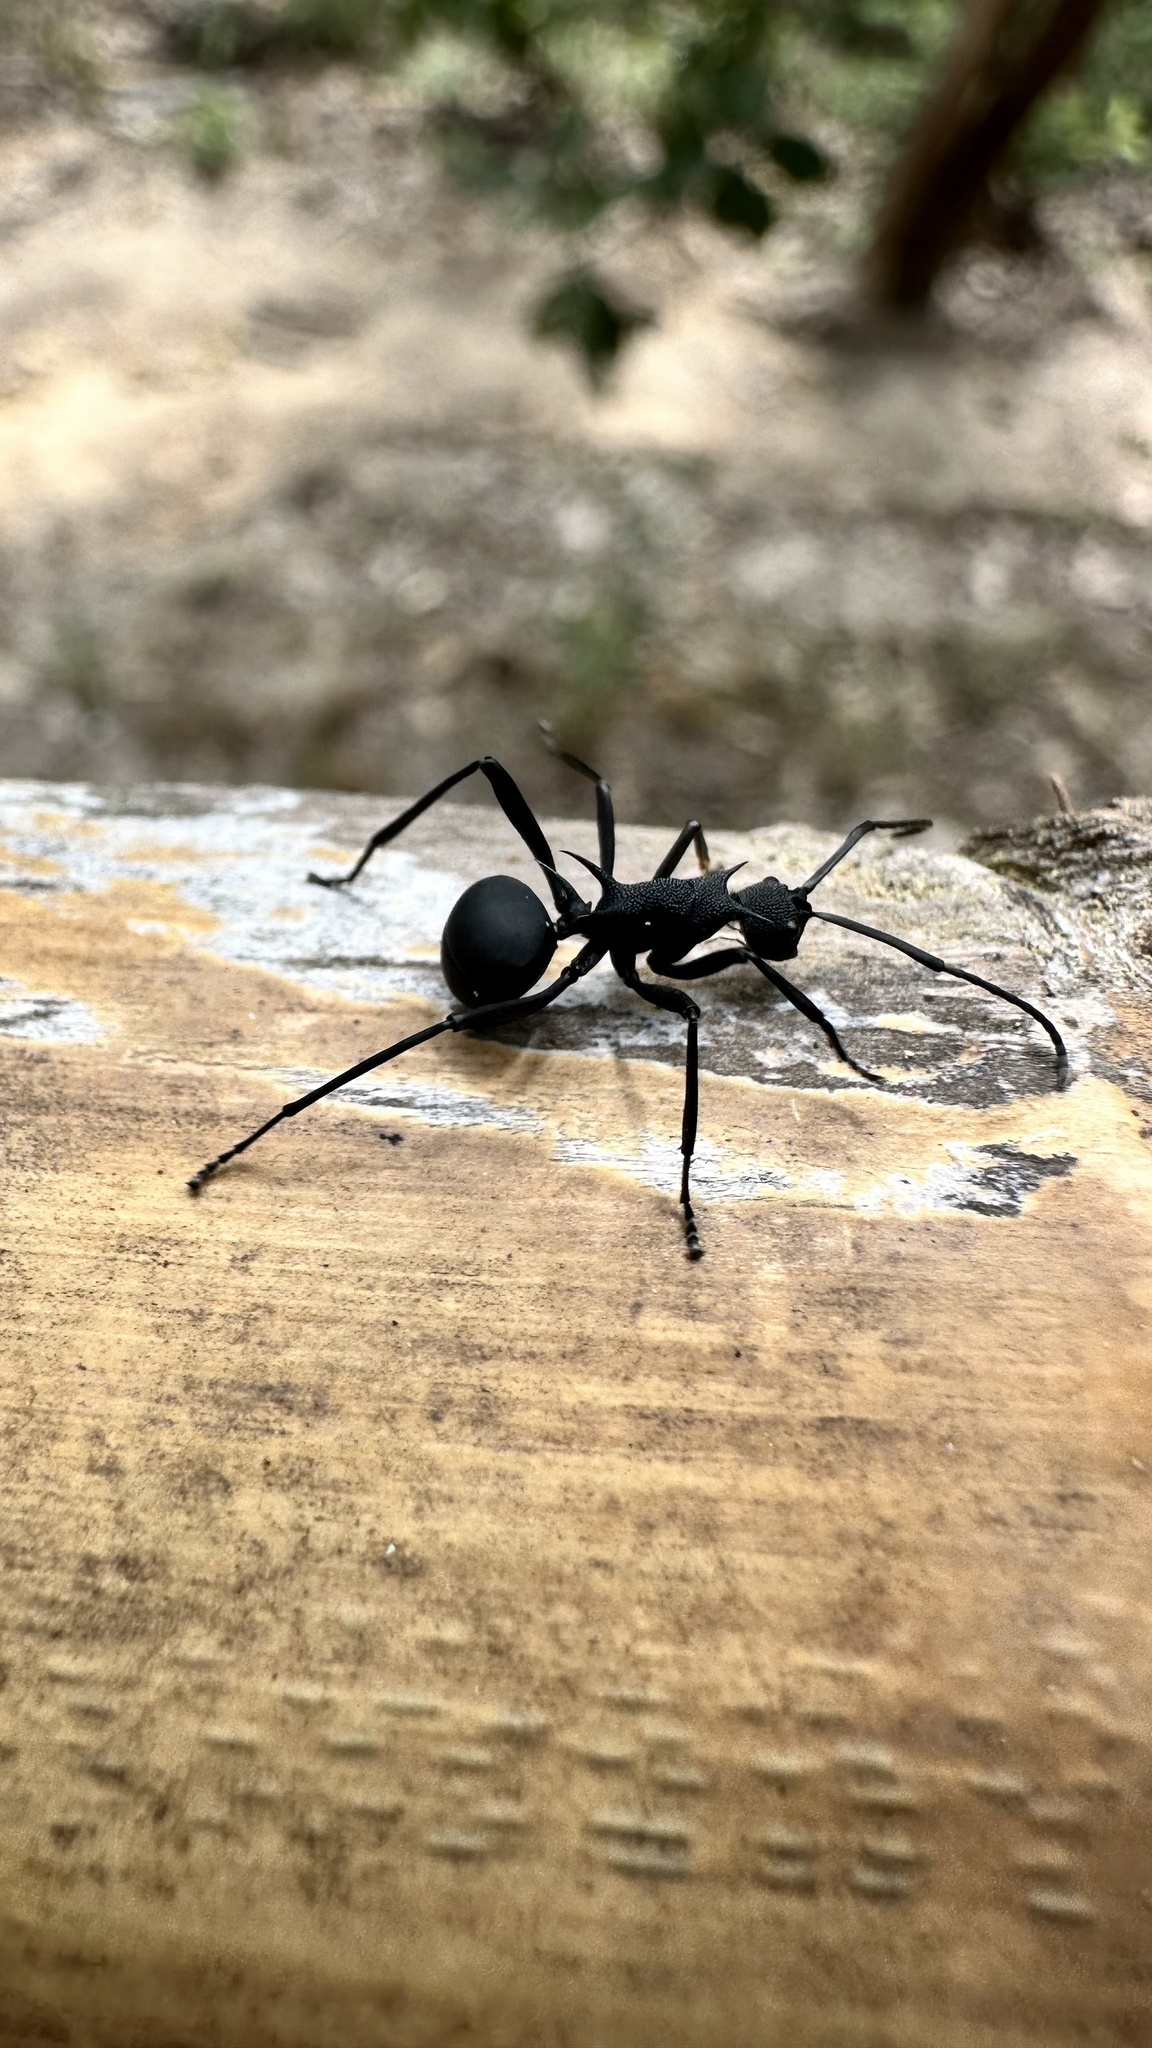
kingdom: Animalia
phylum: Arthropoda
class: Insecta
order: Hymenoptera
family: Formicidae
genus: Polyrhachis
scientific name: Polyrhachis armata
